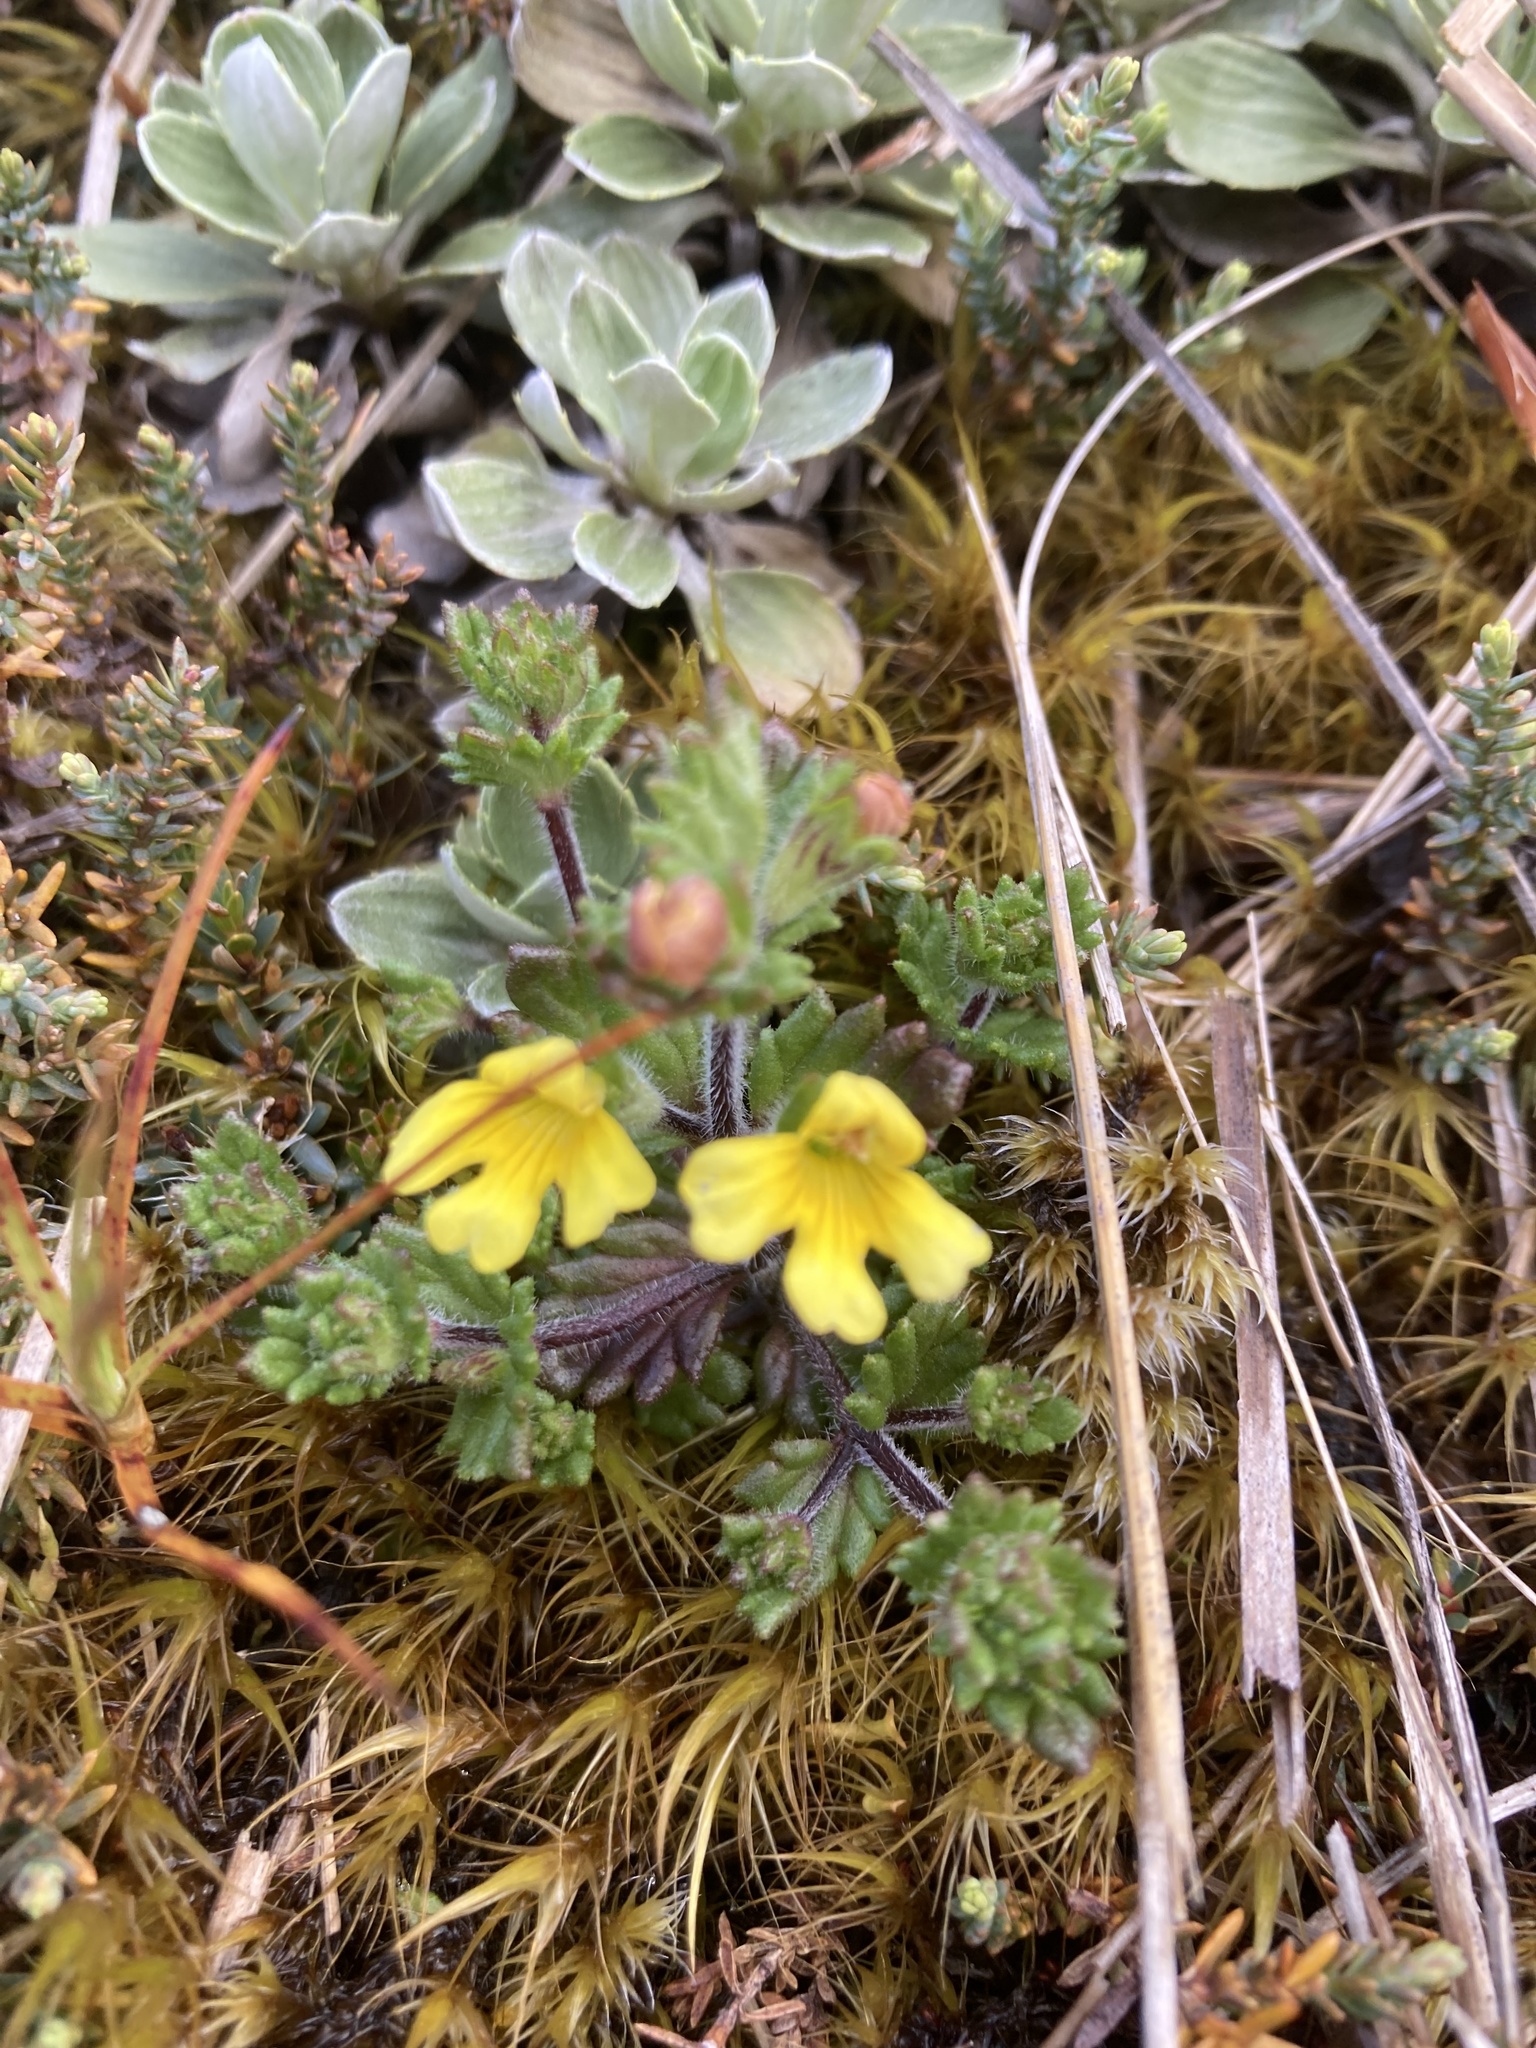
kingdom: Plantae
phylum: Tracheophyta
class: Magnoliopsida
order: Lamiales
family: Orobanchaceae
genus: Euphrasia
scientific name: Euphrasia cockayneana
